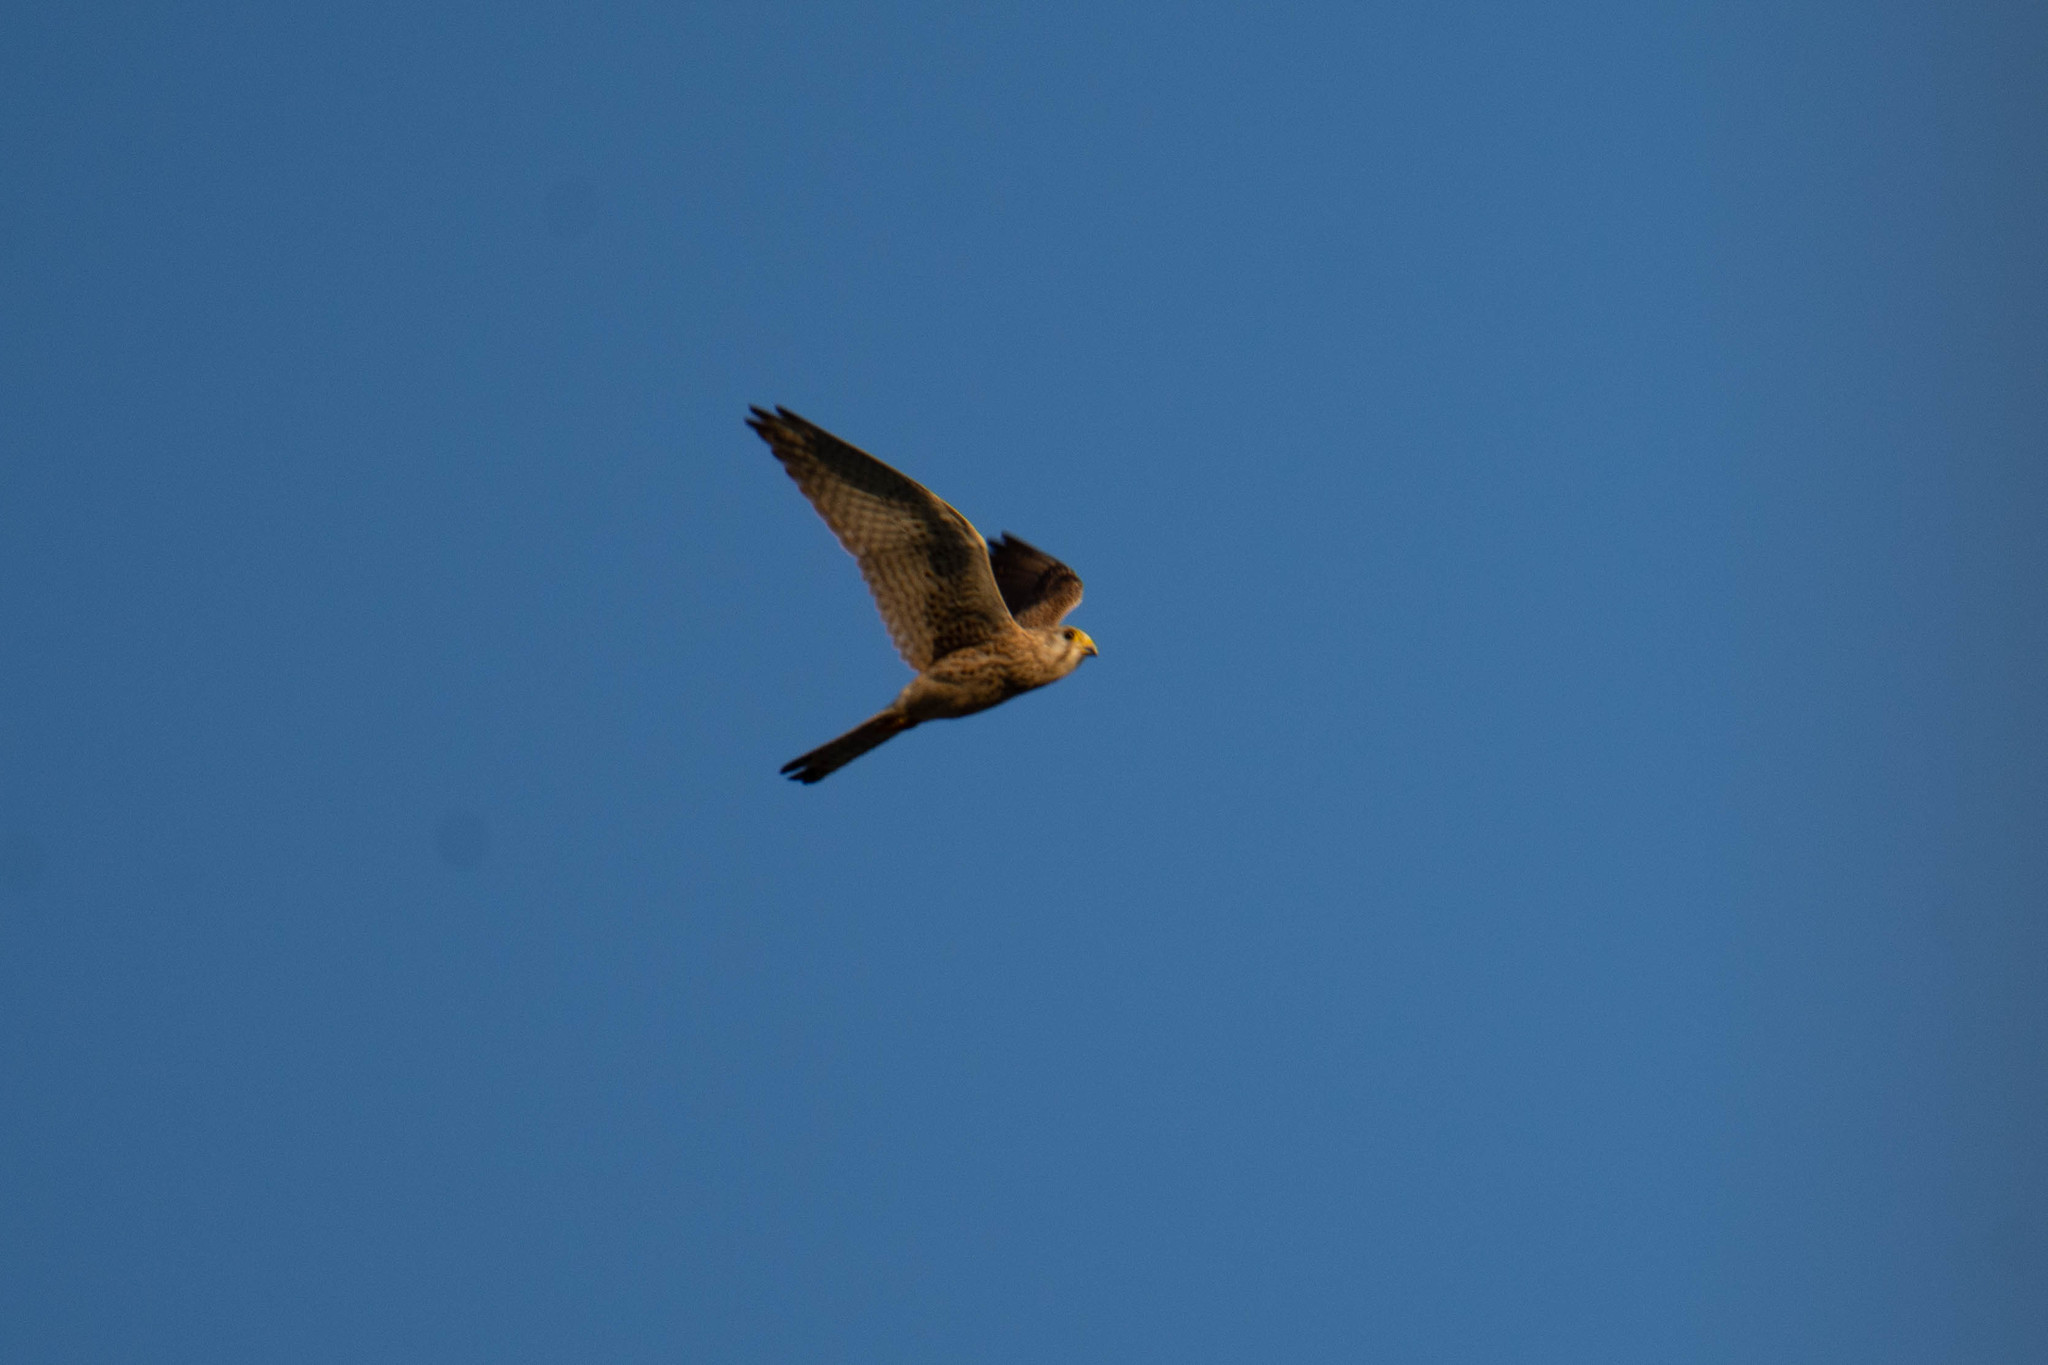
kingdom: Animalia
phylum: Chordata
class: Aves
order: Falconiformes
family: Falconidae
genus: Falco
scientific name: Falco tinnunculus
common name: Common kestrel
